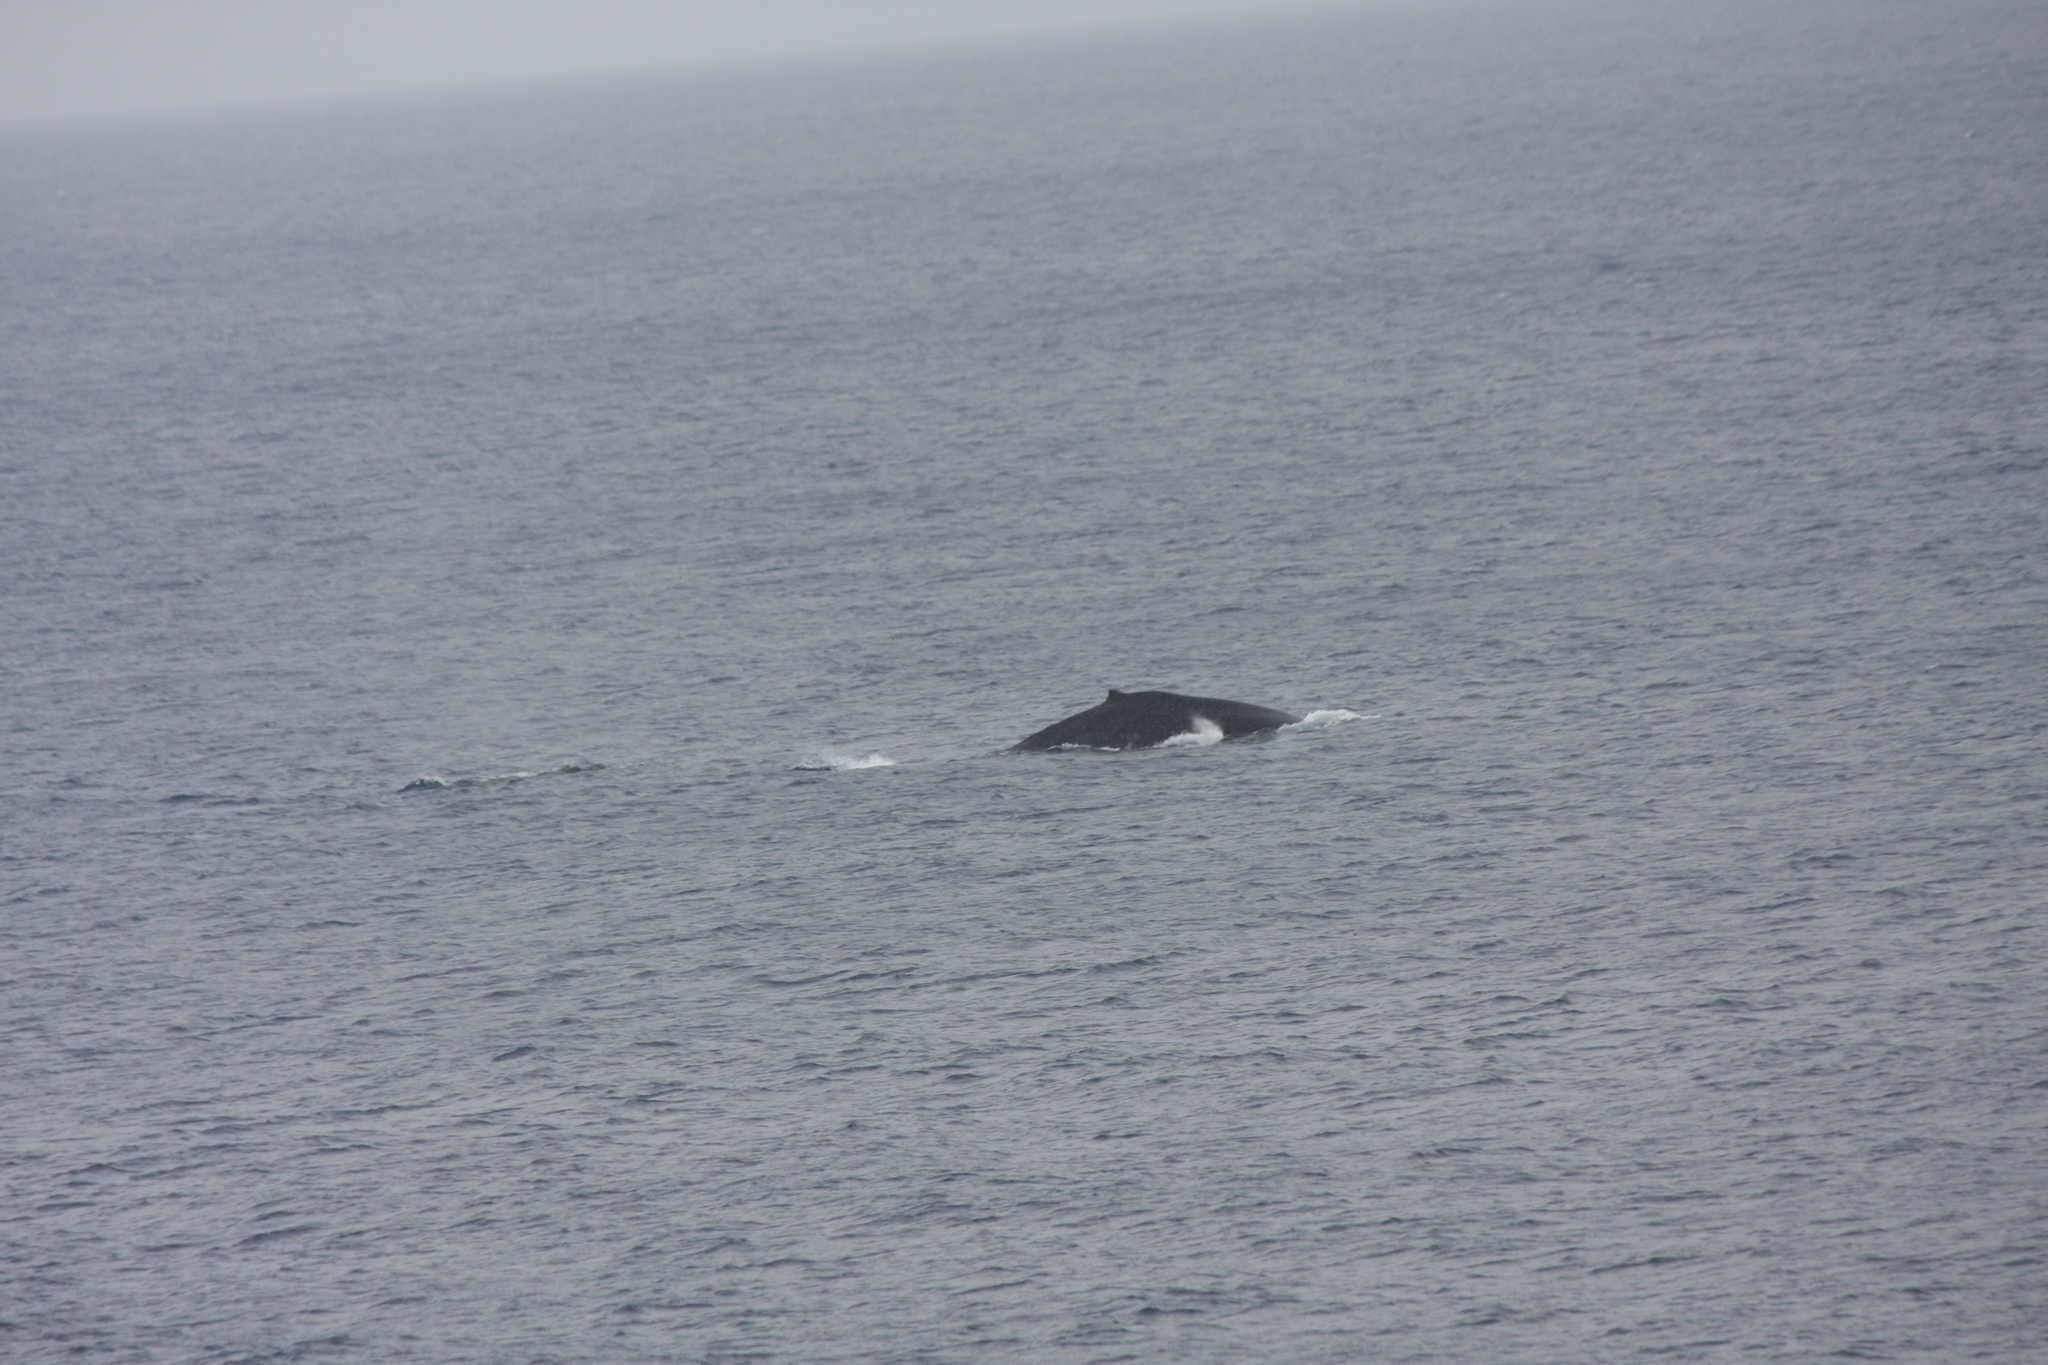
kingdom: Animalia
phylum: Chordata
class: Mammalia
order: Cetacea
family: Balaenopteridae
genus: Megaptera
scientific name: Megaptera novaeangliae
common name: Humpback whale
